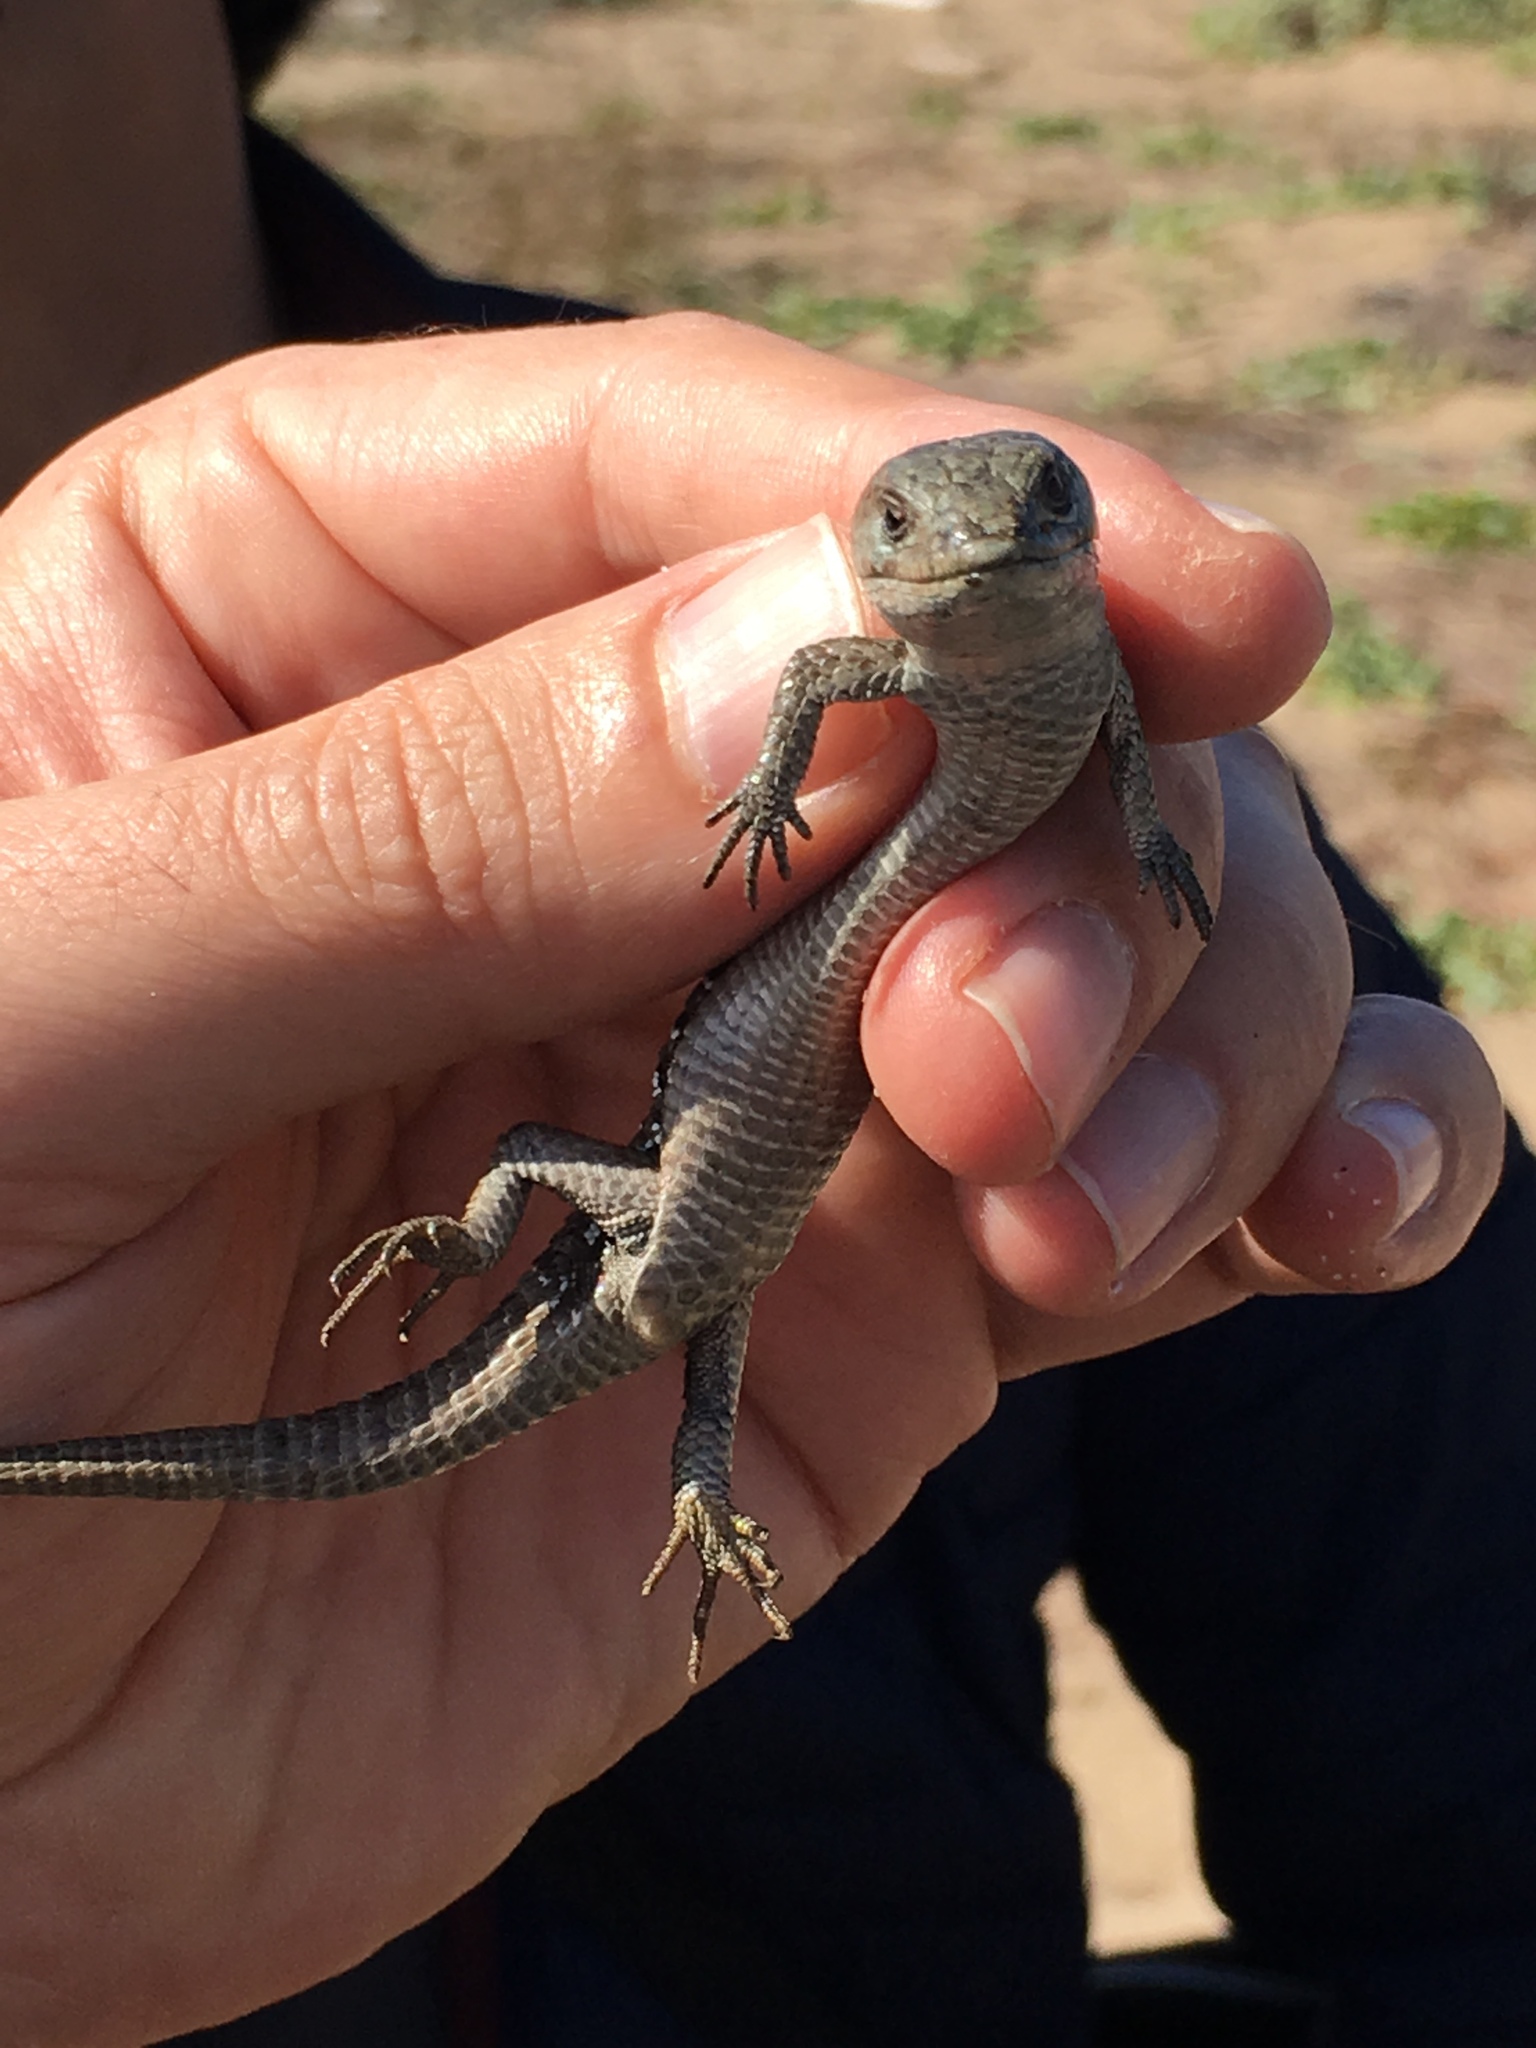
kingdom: Animalia
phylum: Chordata
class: Squamata
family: Anguidae
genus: Elgaria
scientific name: Elgaria coerulea
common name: Northern alligator lizard
